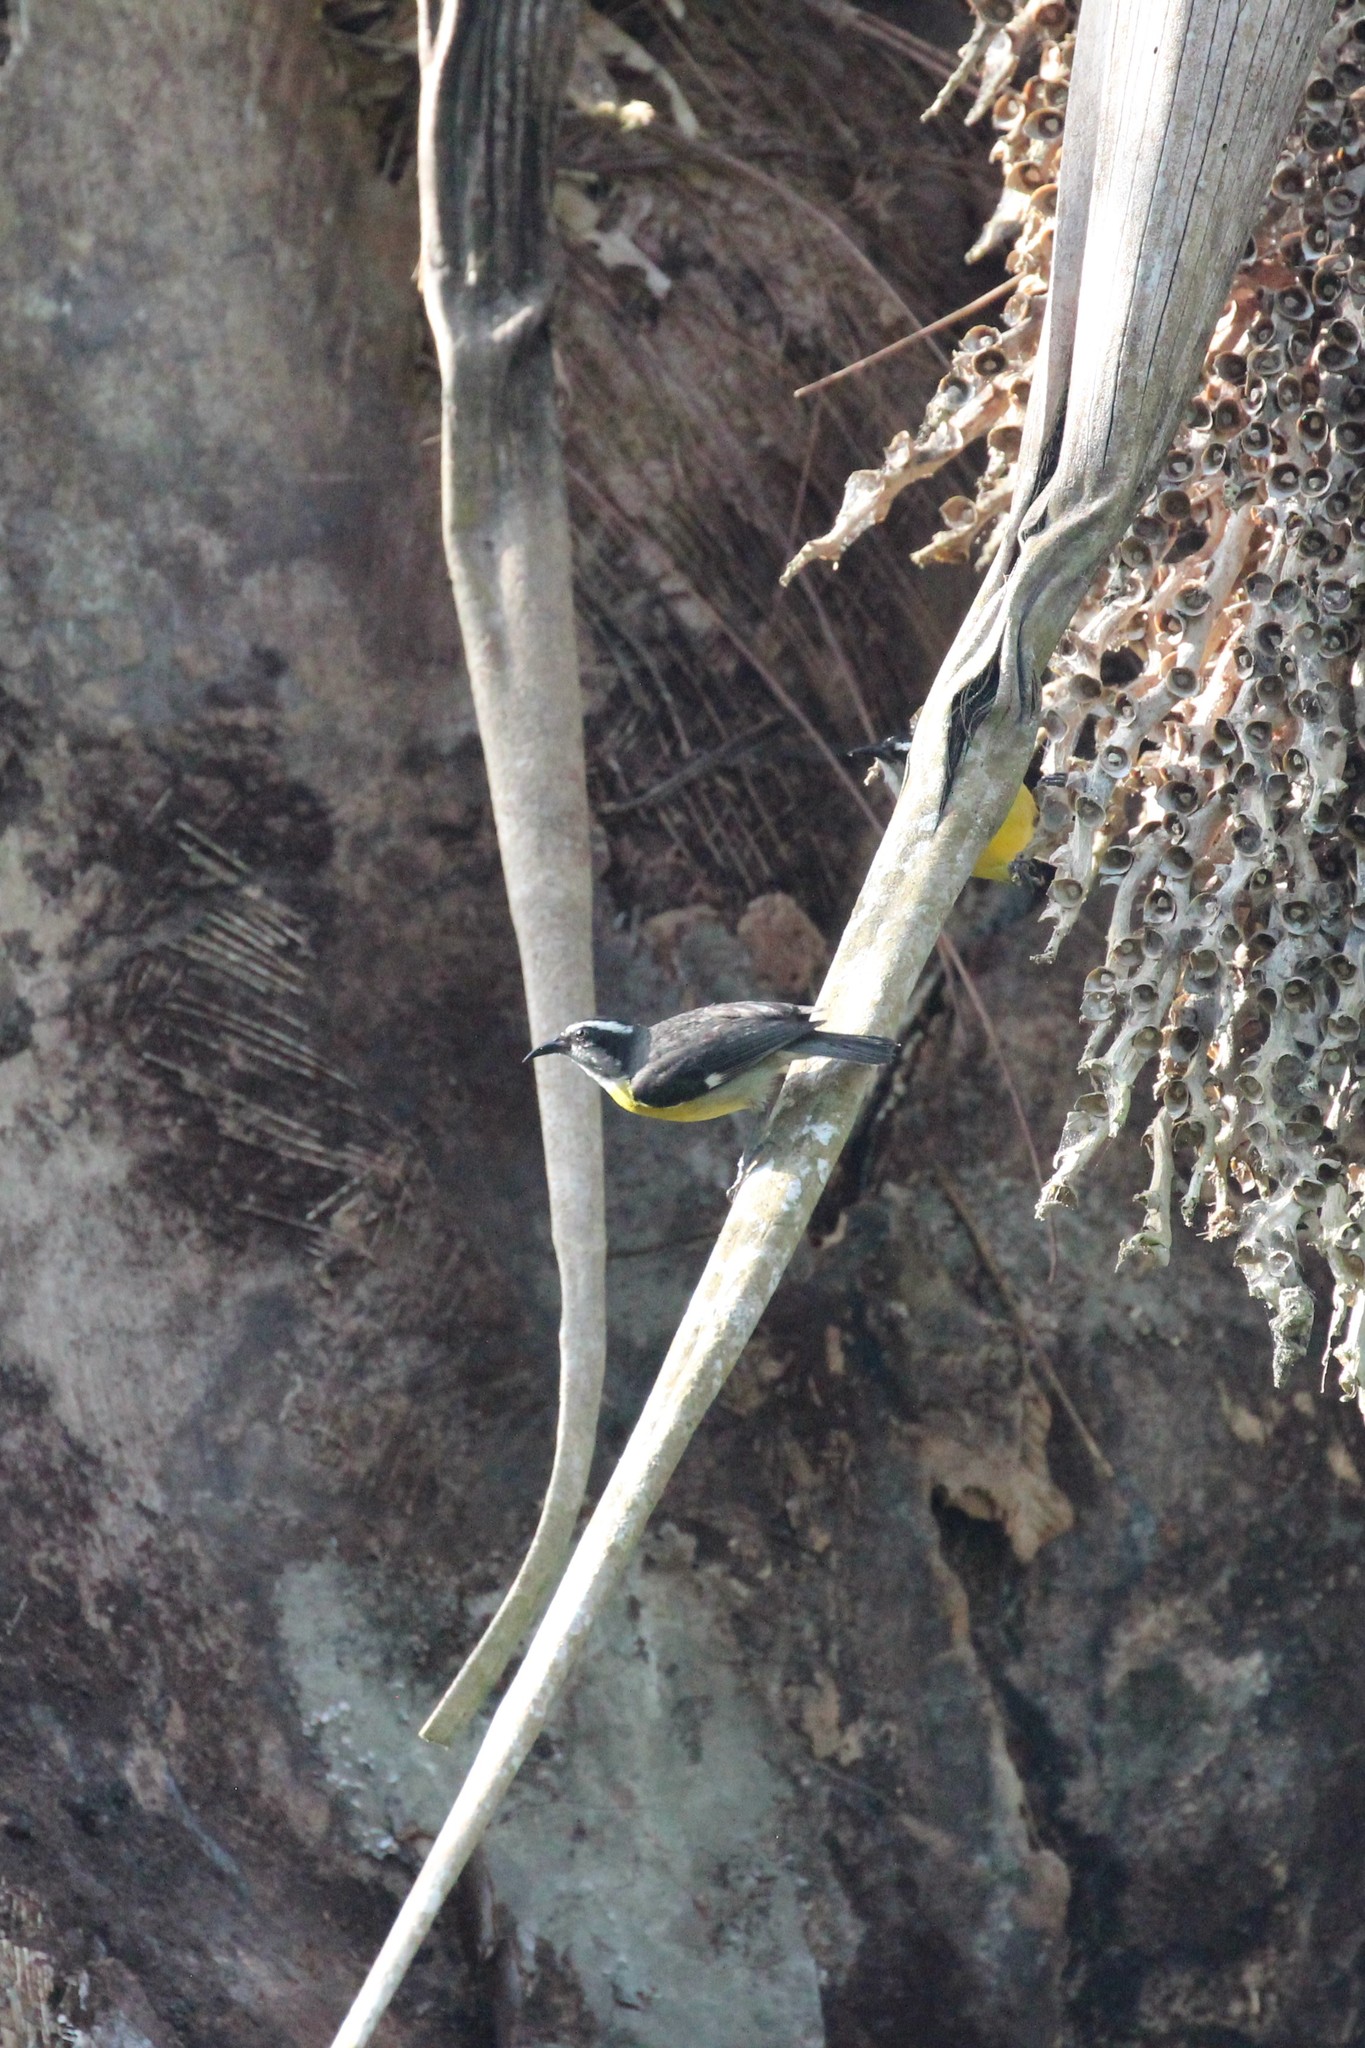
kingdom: Animalia
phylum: Chordata
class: Aves
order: Passeriformes
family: Thraupidae
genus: Coereba
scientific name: Coereba flaveola
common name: Bananaquit
